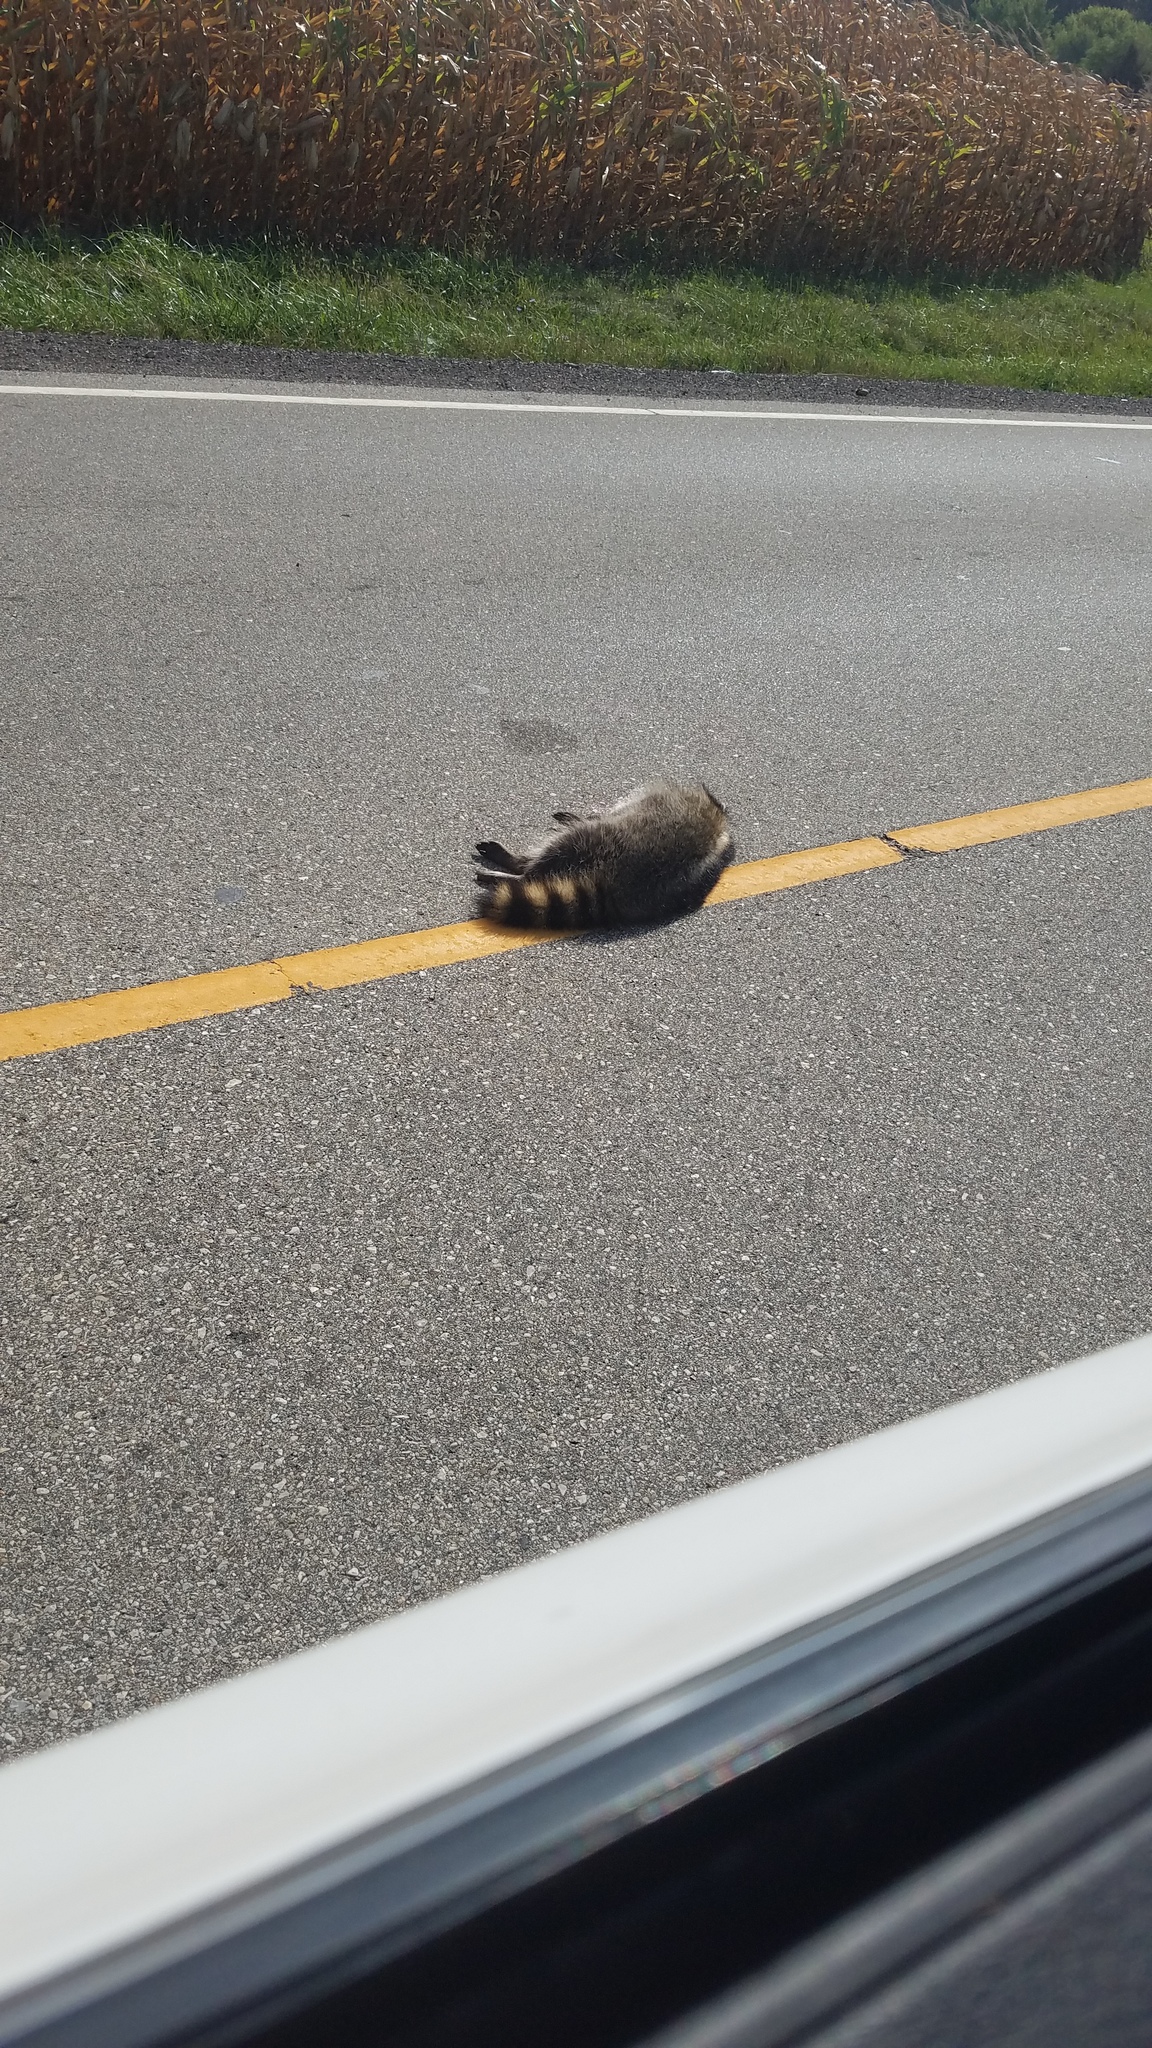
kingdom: Animalia
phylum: Chordata
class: Mammalia
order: Carnivora
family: Procyonidae
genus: Procyon
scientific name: Procyon lotor
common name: Raccoon
